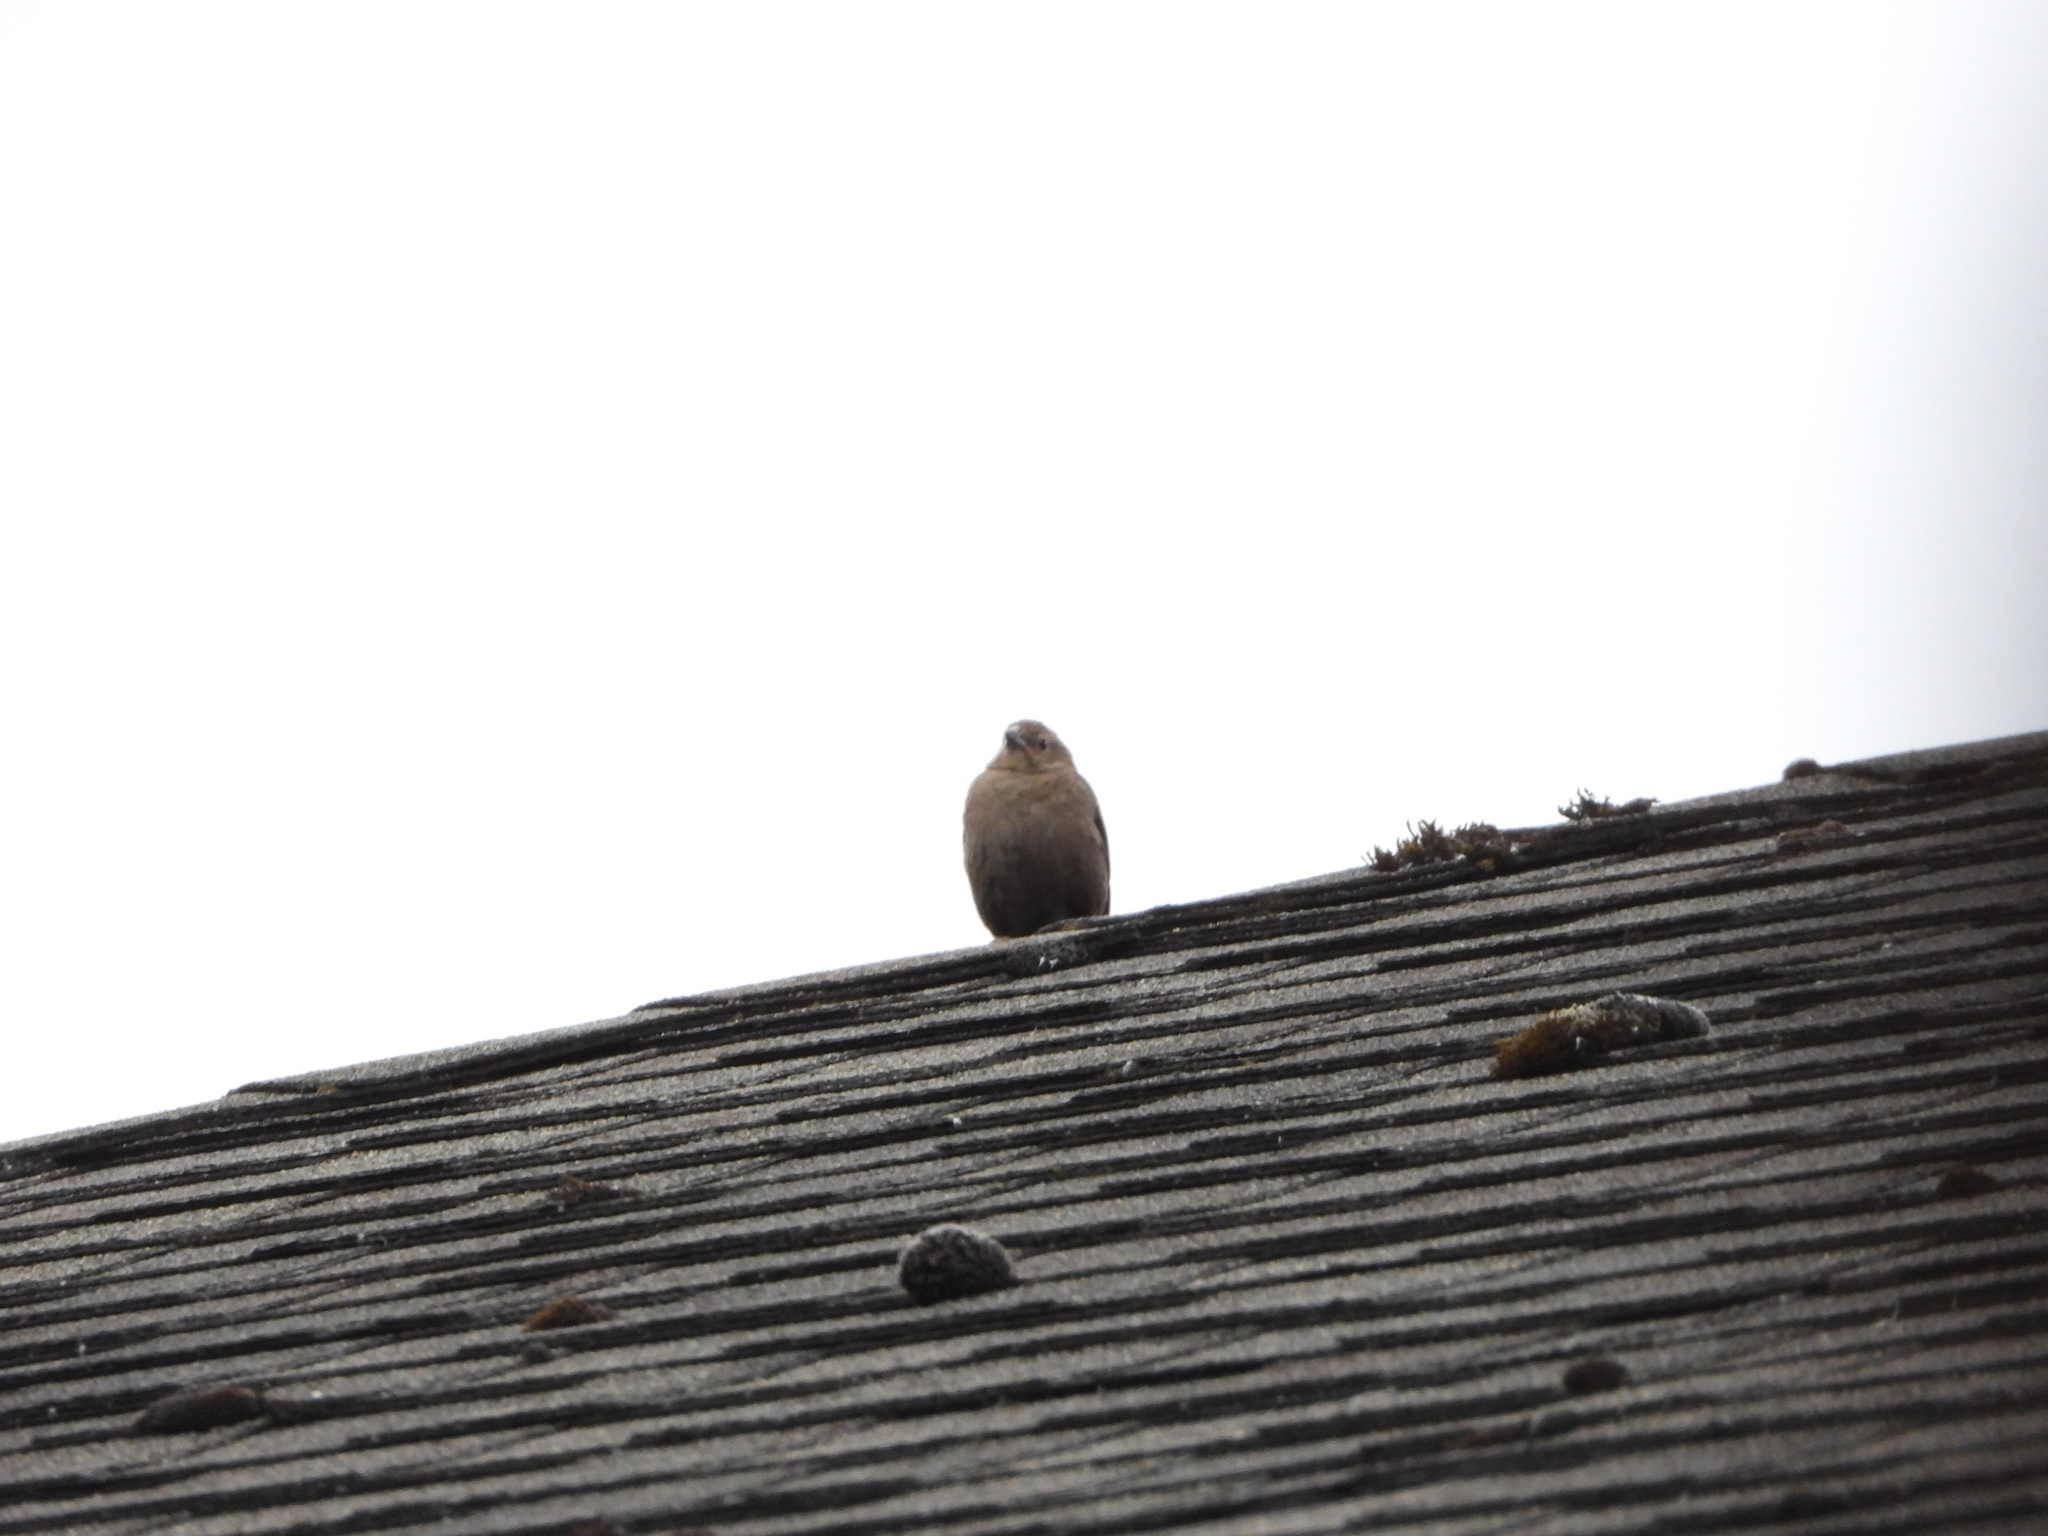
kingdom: Animalia
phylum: Chordata
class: Aves
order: Passeriformes
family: Icteridae
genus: Molothrus
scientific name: Molothrus ater
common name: Brown-headed cowbird
